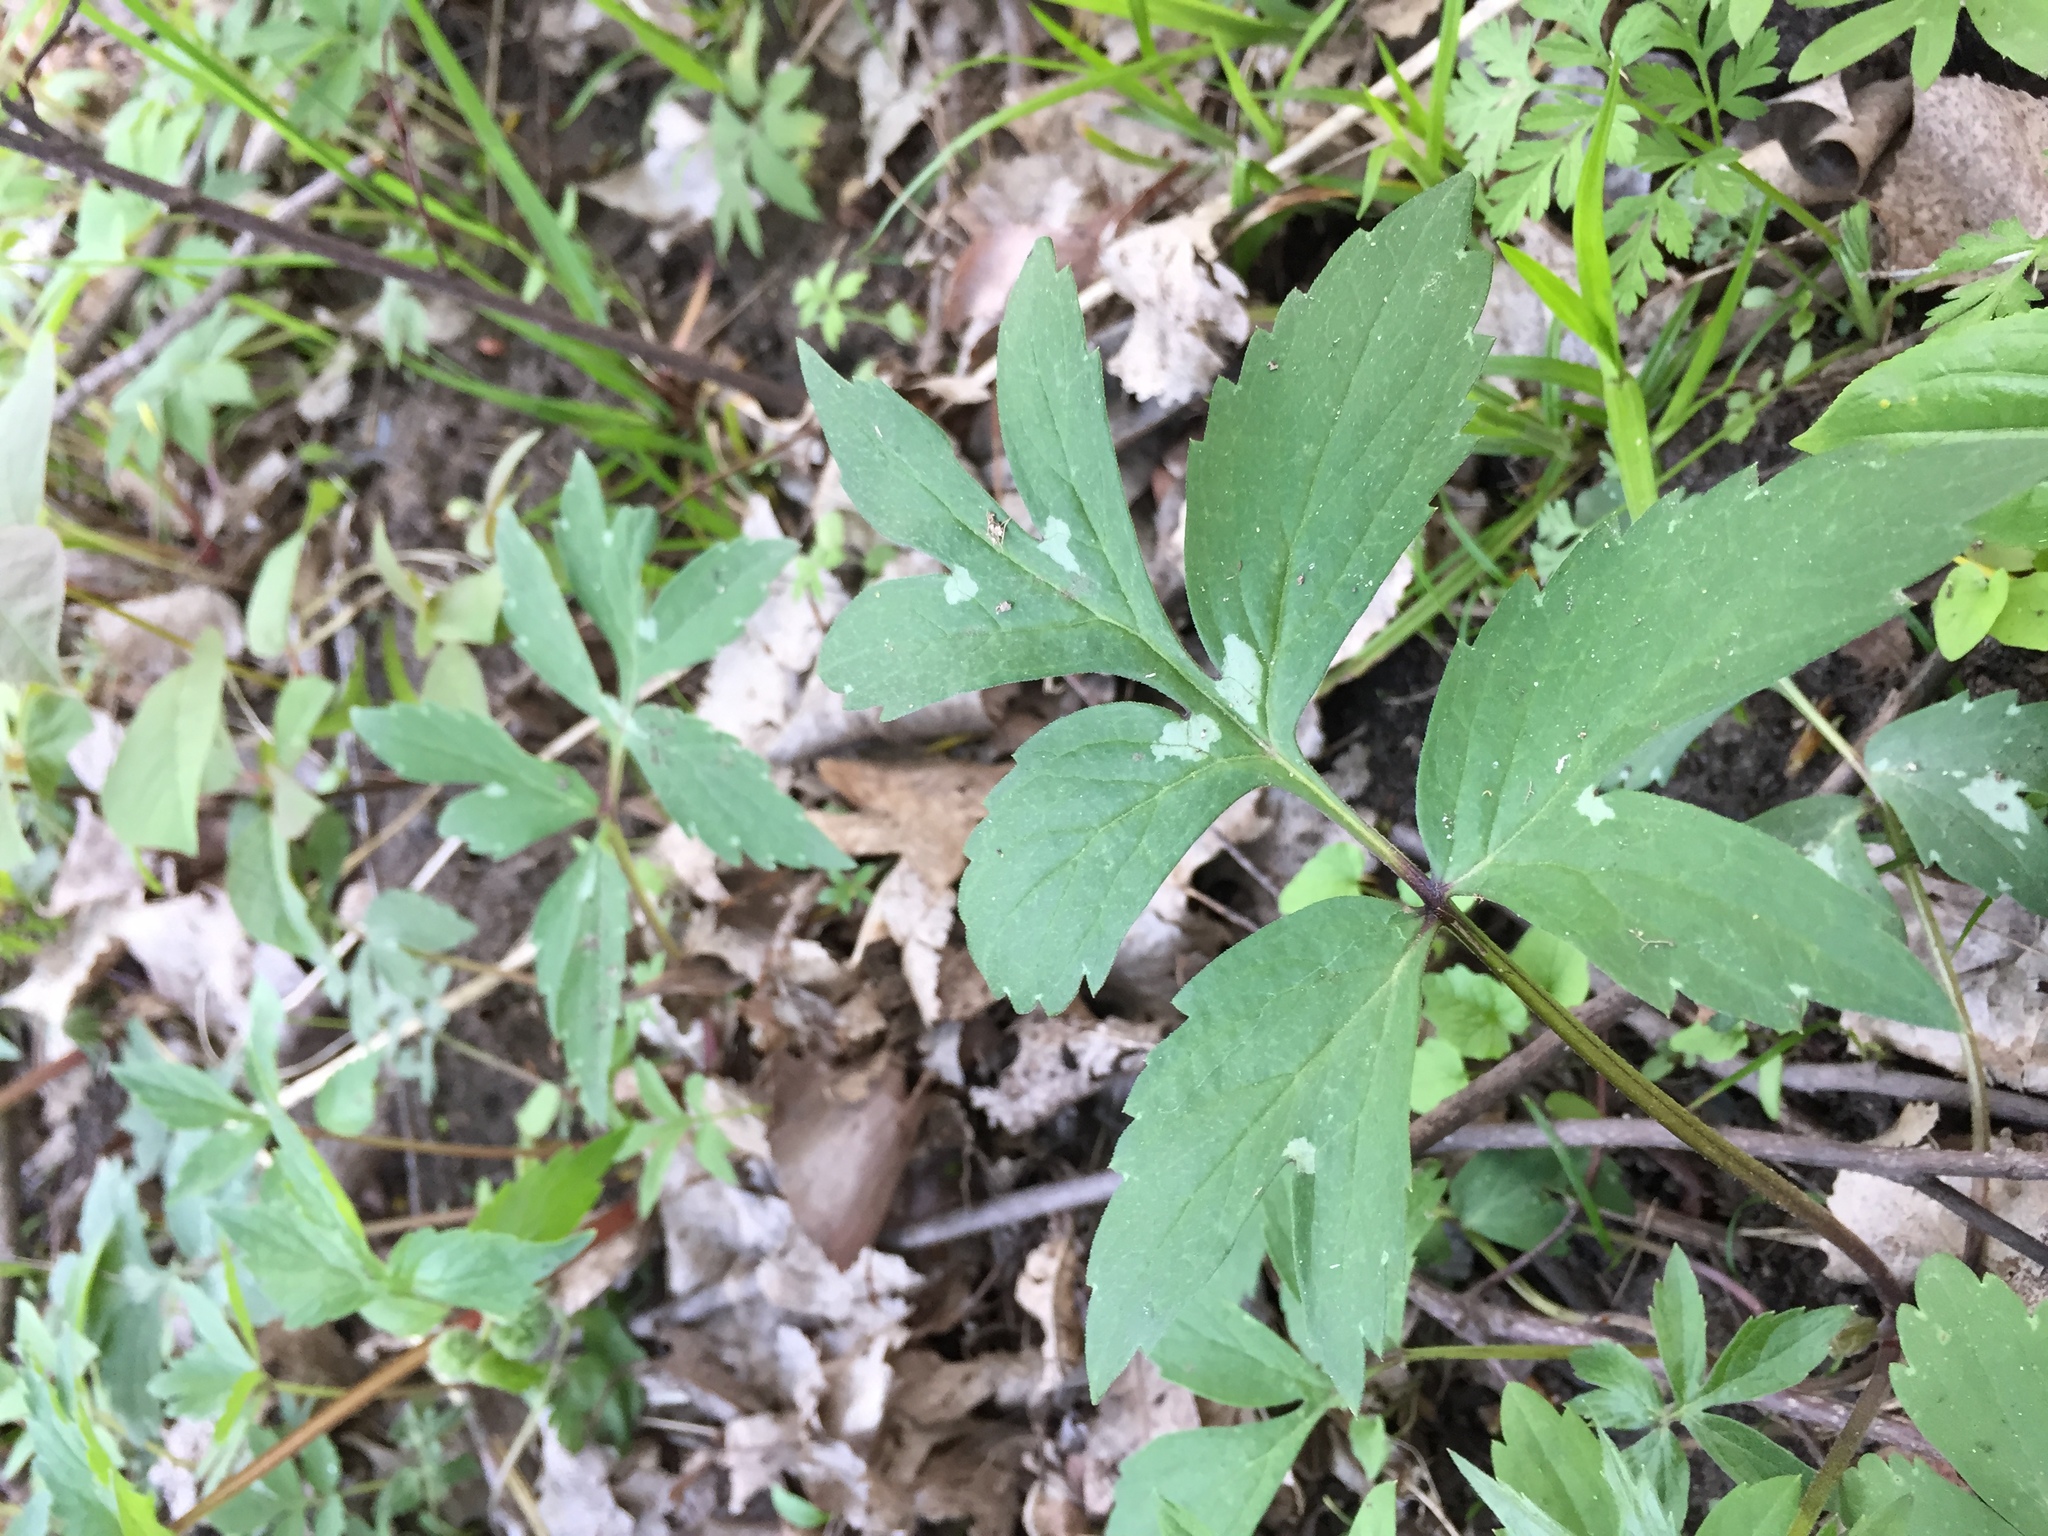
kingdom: Plantae
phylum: Tracheophyta
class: Magnoliopsida
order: Boraginales
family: Hydrophyllaceae
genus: Hydrophyllum
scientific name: Hydrophyllum virginianum
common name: Virginia waterleaf
